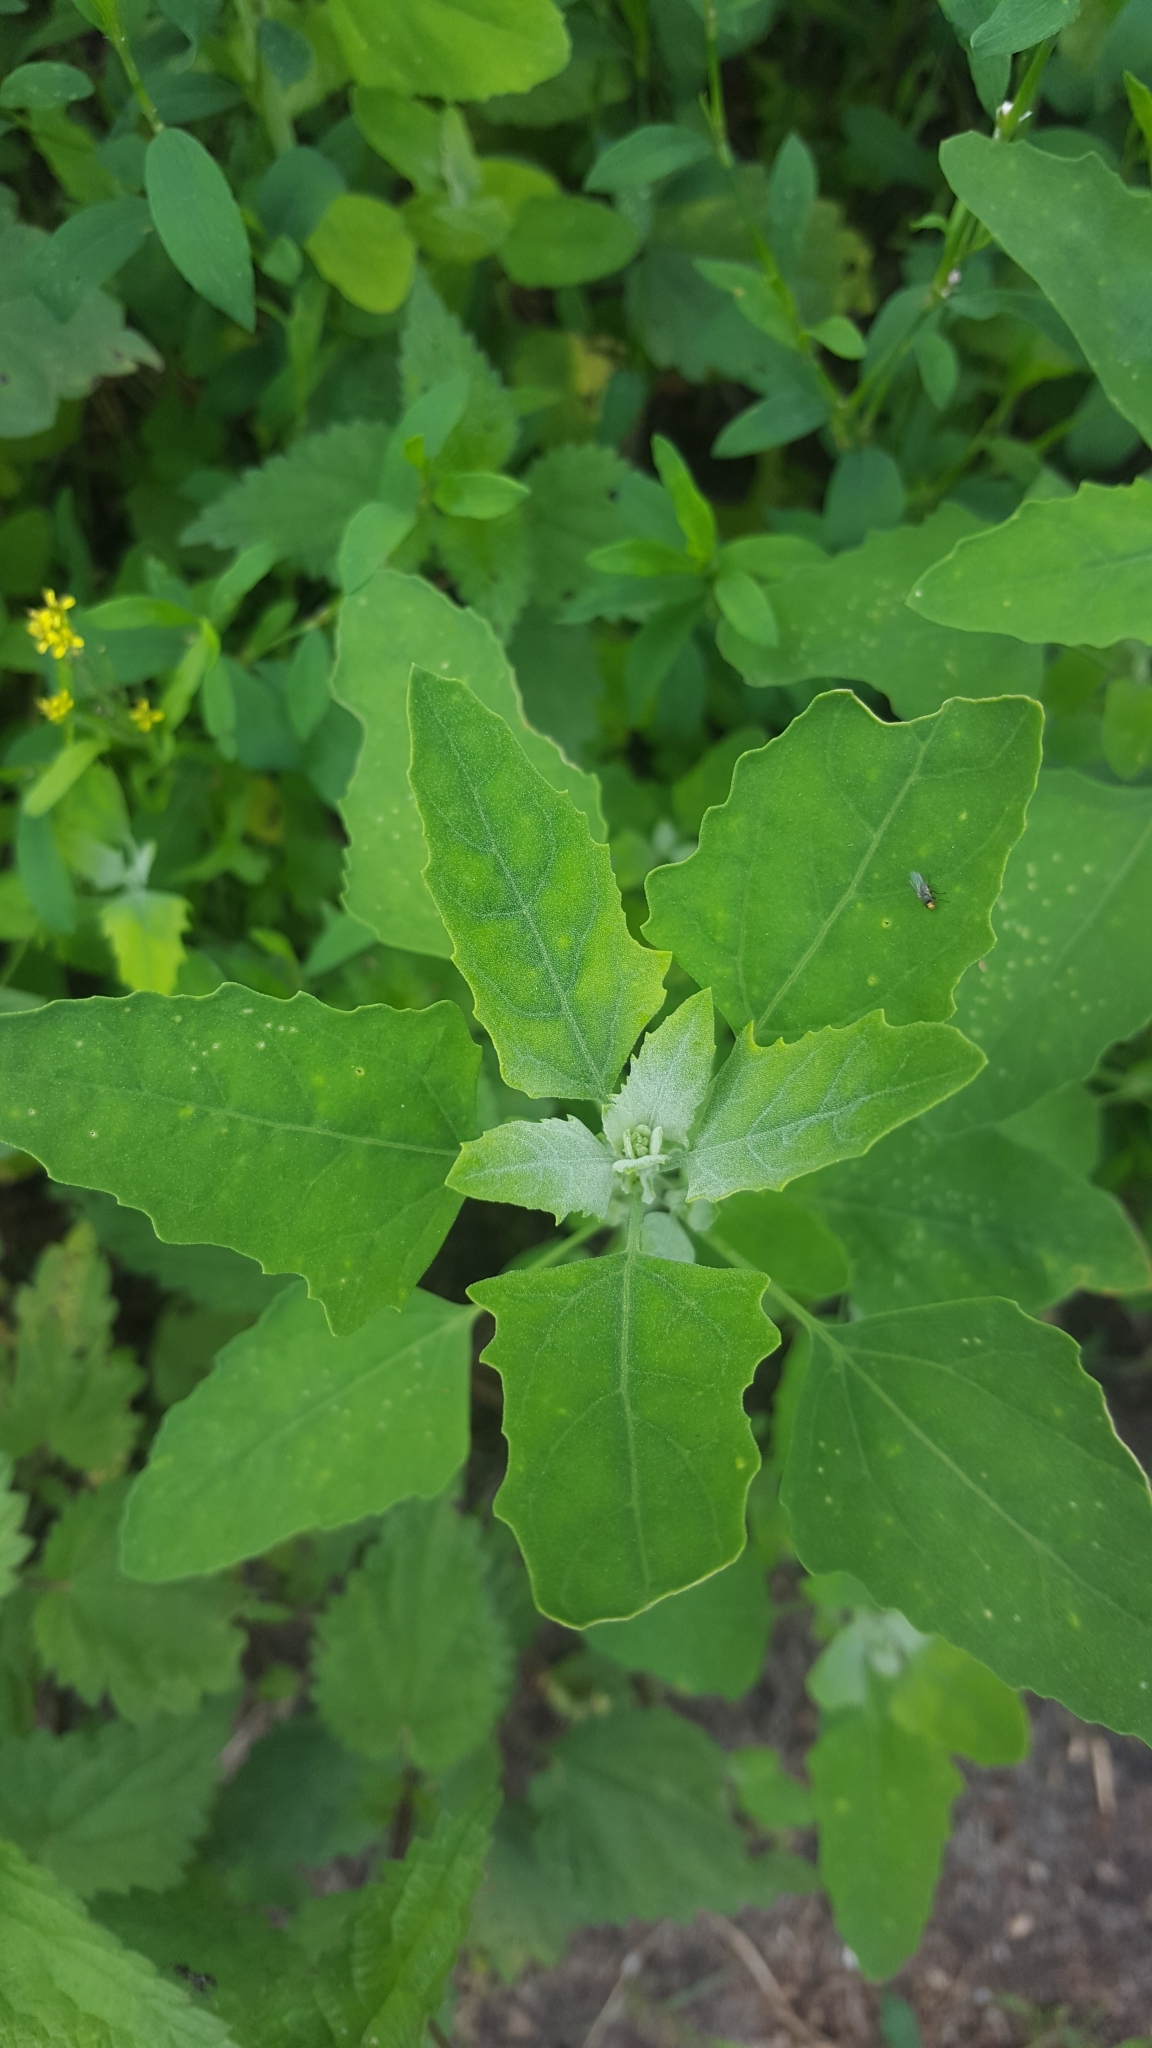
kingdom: Plantae
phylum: Tracheophyta
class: Magnoliopsida
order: Caryophyllales
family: Amaranthaceae
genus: Chenopodium
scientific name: Chenopodium album
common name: Fat-hen
